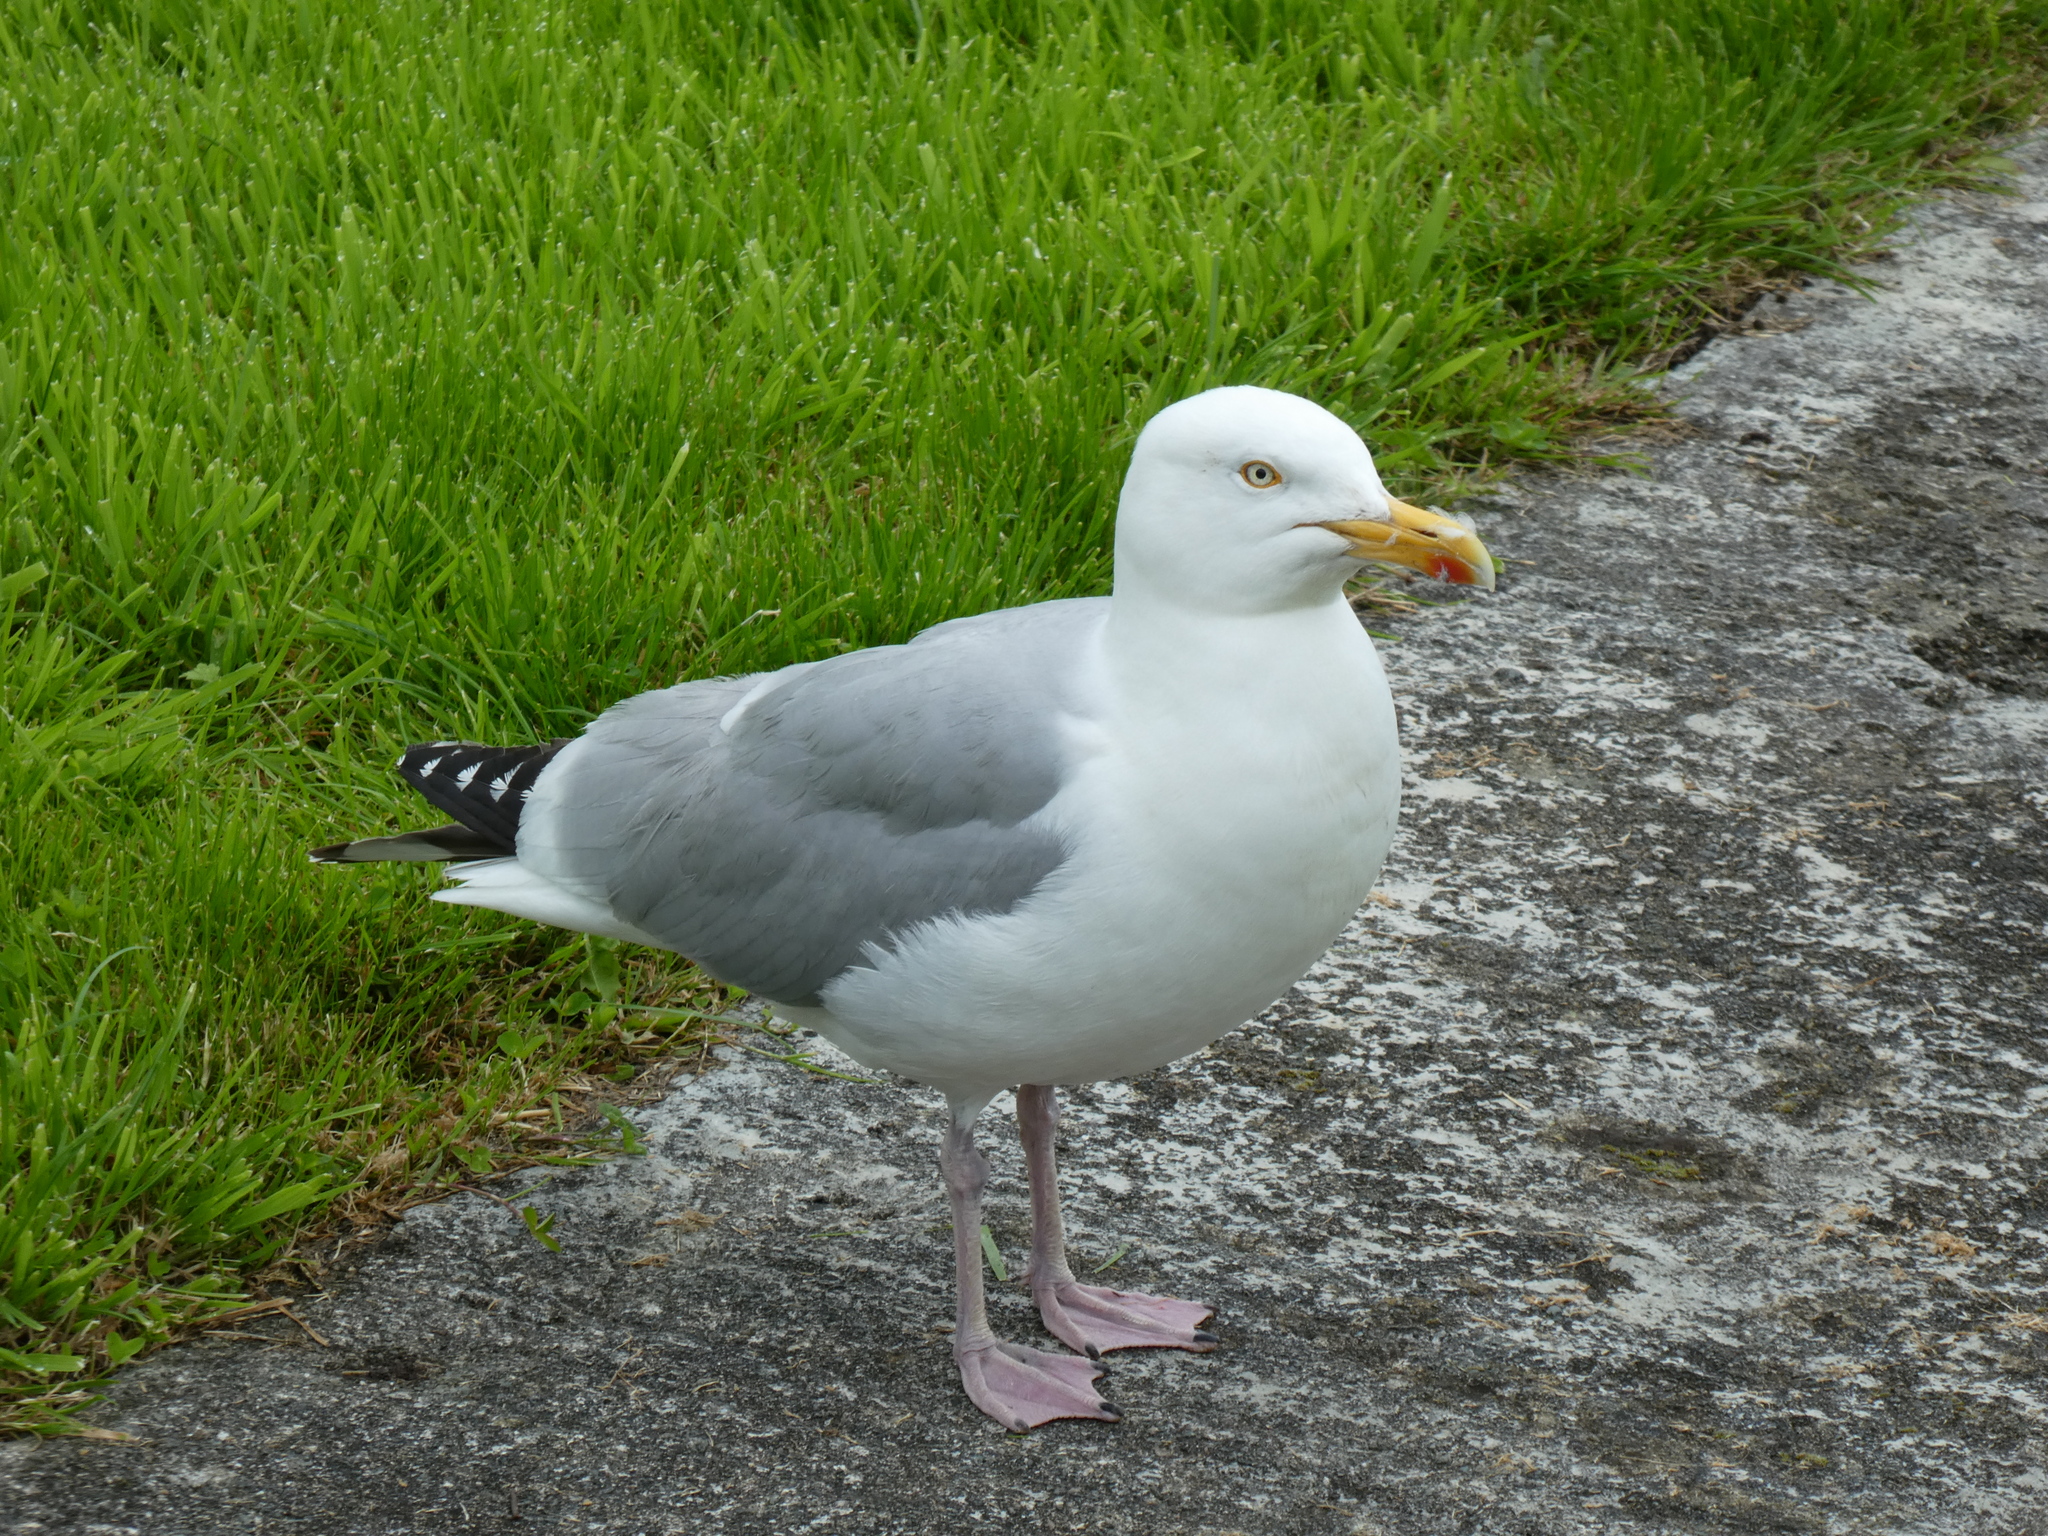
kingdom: Animalia
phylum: Chordata
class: Aves
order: Charadriiformes
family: Laridae
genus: Larus
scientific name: Larus argentatus
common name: Herring gull
